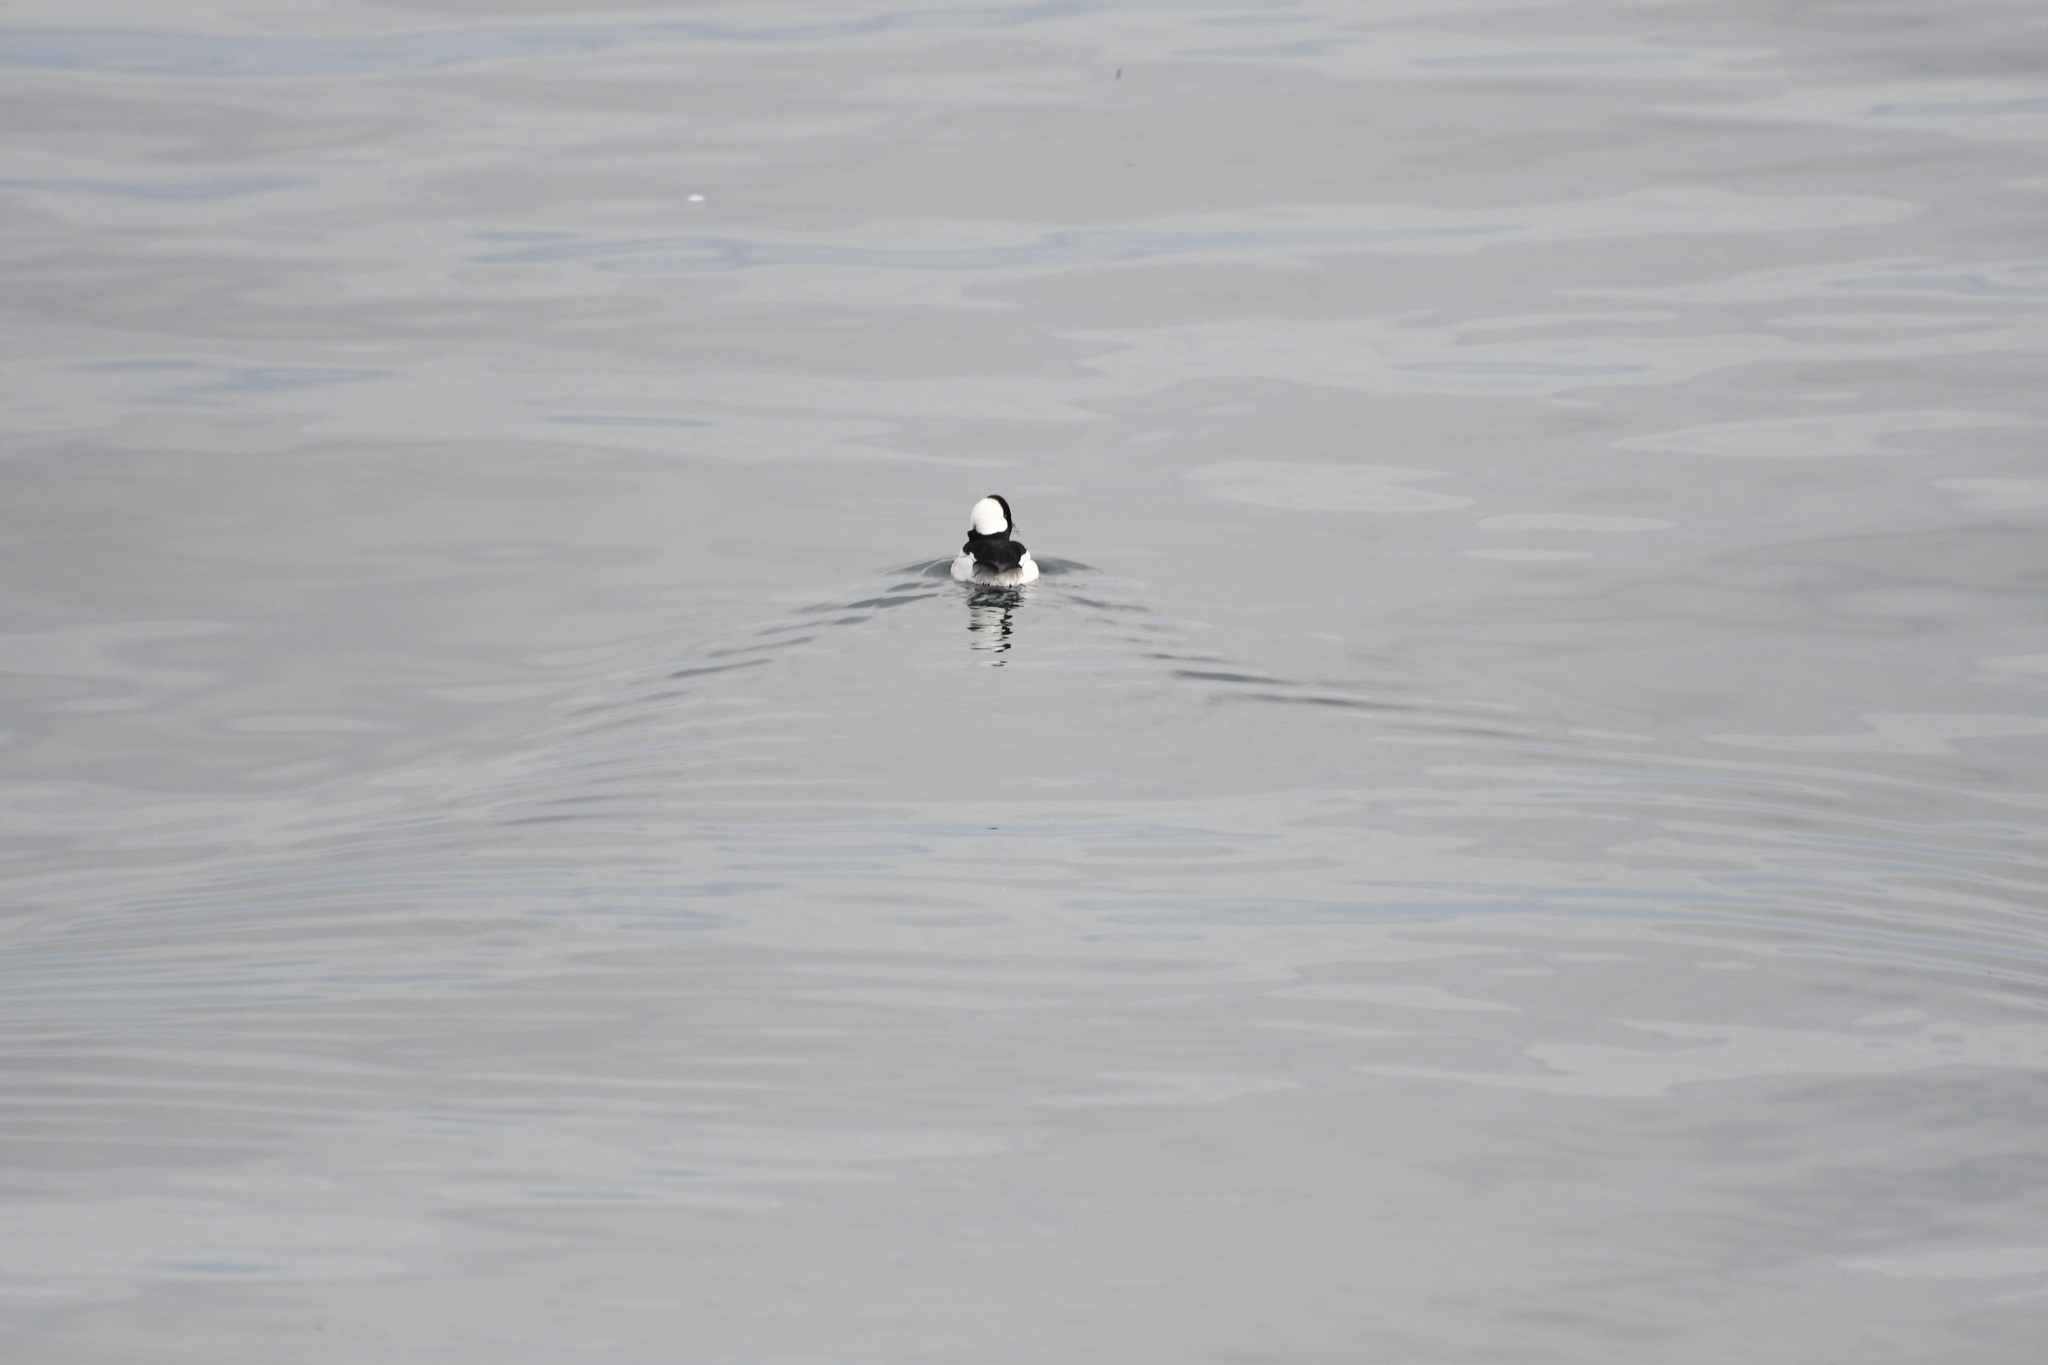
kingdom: Animalia
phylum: Chordata
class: Aves
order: Anseriformes
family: Anatidae
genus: Bucephala
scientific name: Bucephala albeola
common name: Bufflehead
